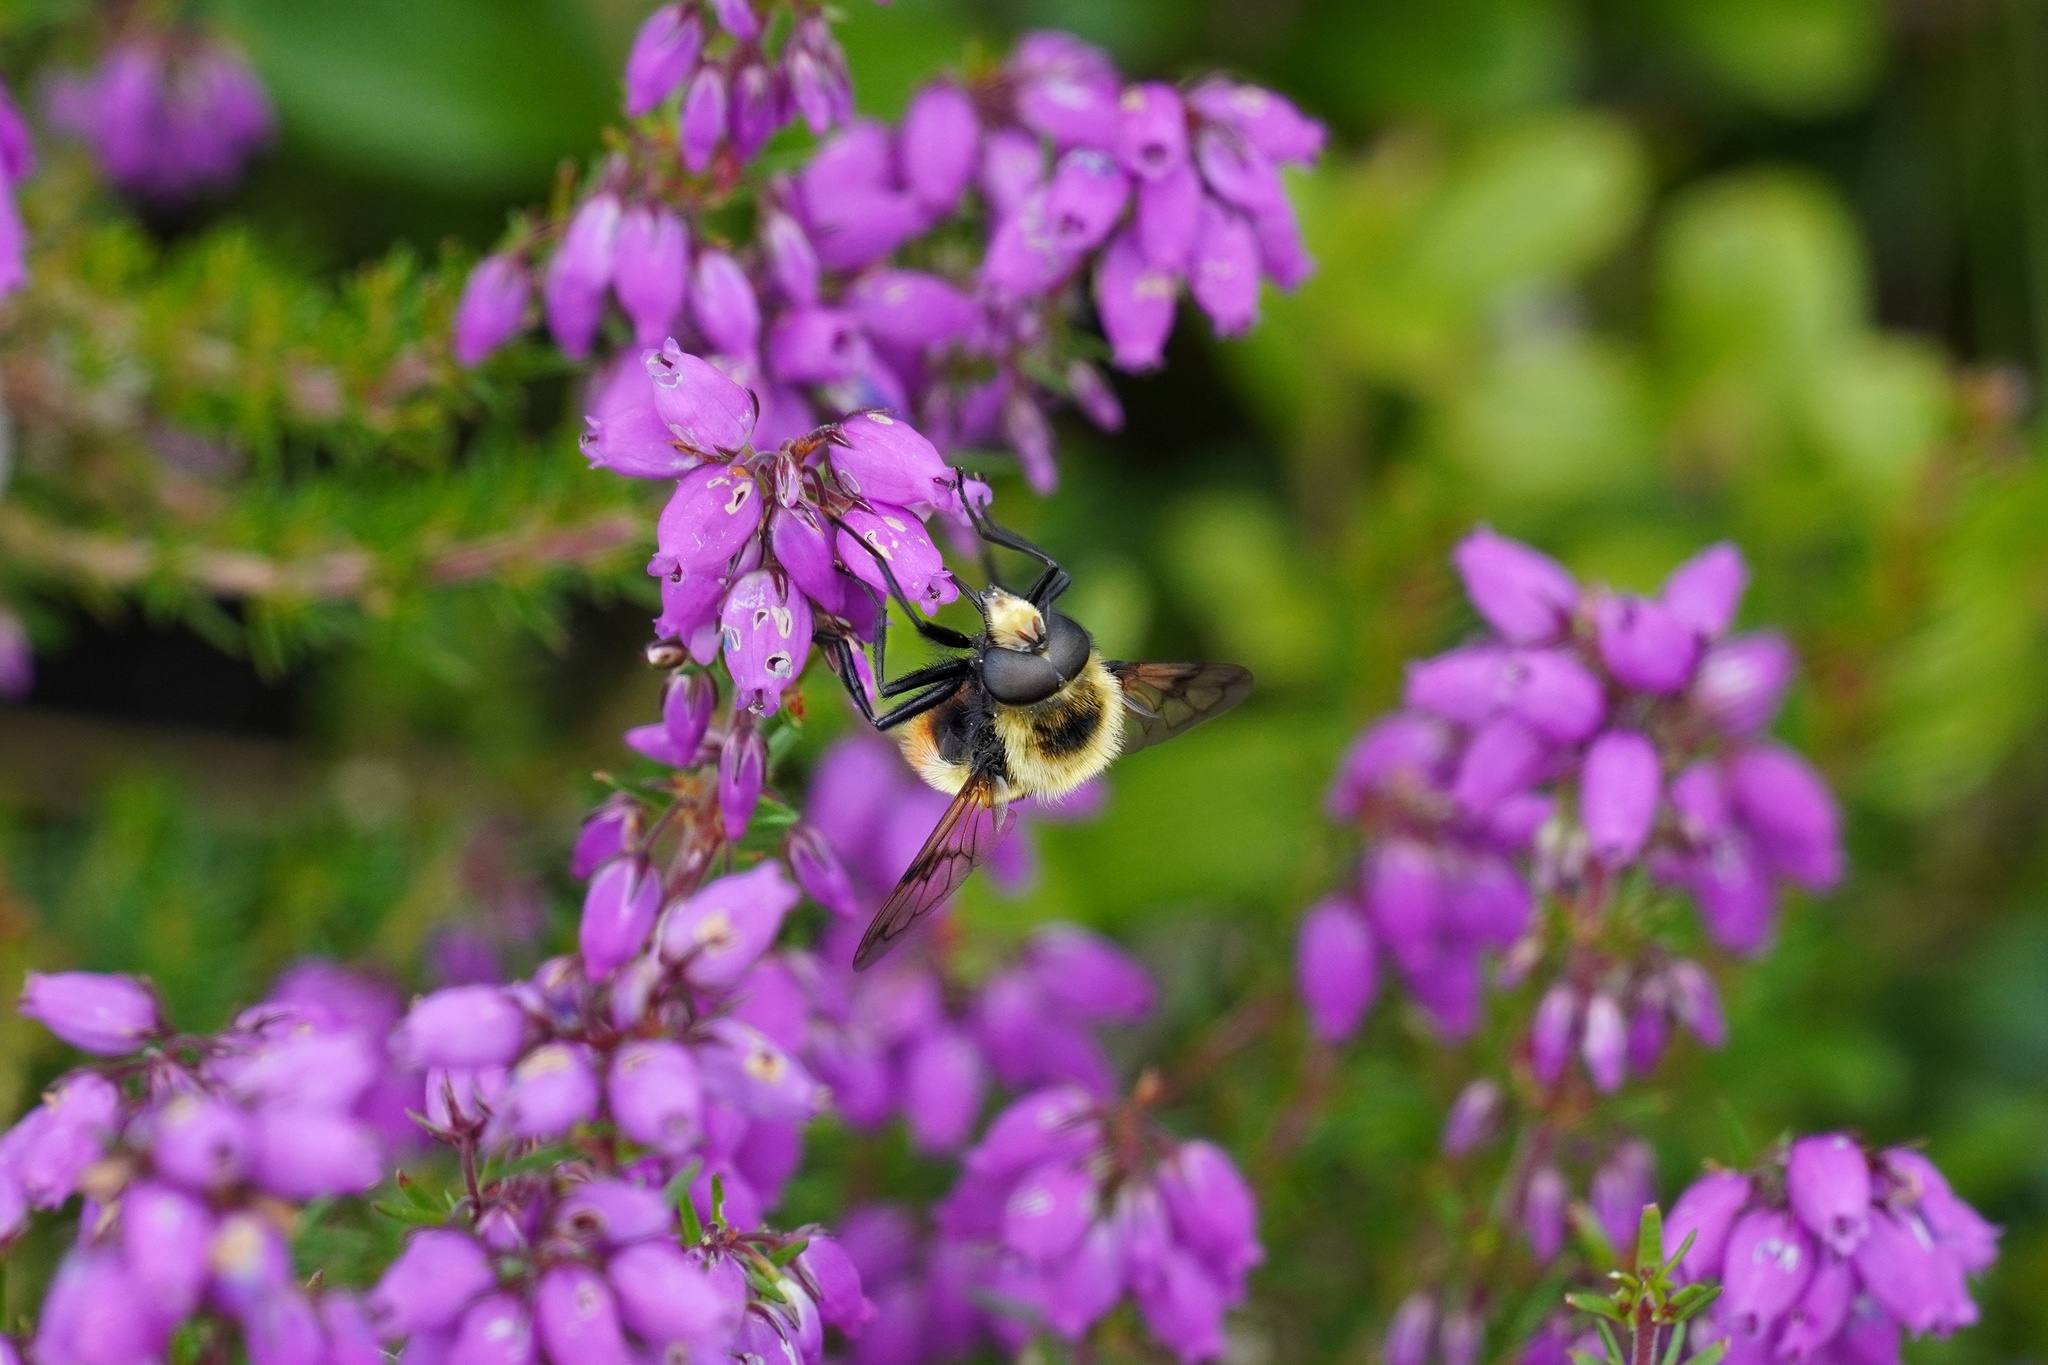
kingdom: Animalia
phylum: Arthropoda
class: Insecta
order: Diptera
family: Syrphidae
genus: Volucella
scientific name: Volucella bombylans
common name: Bumble bee hover fly
